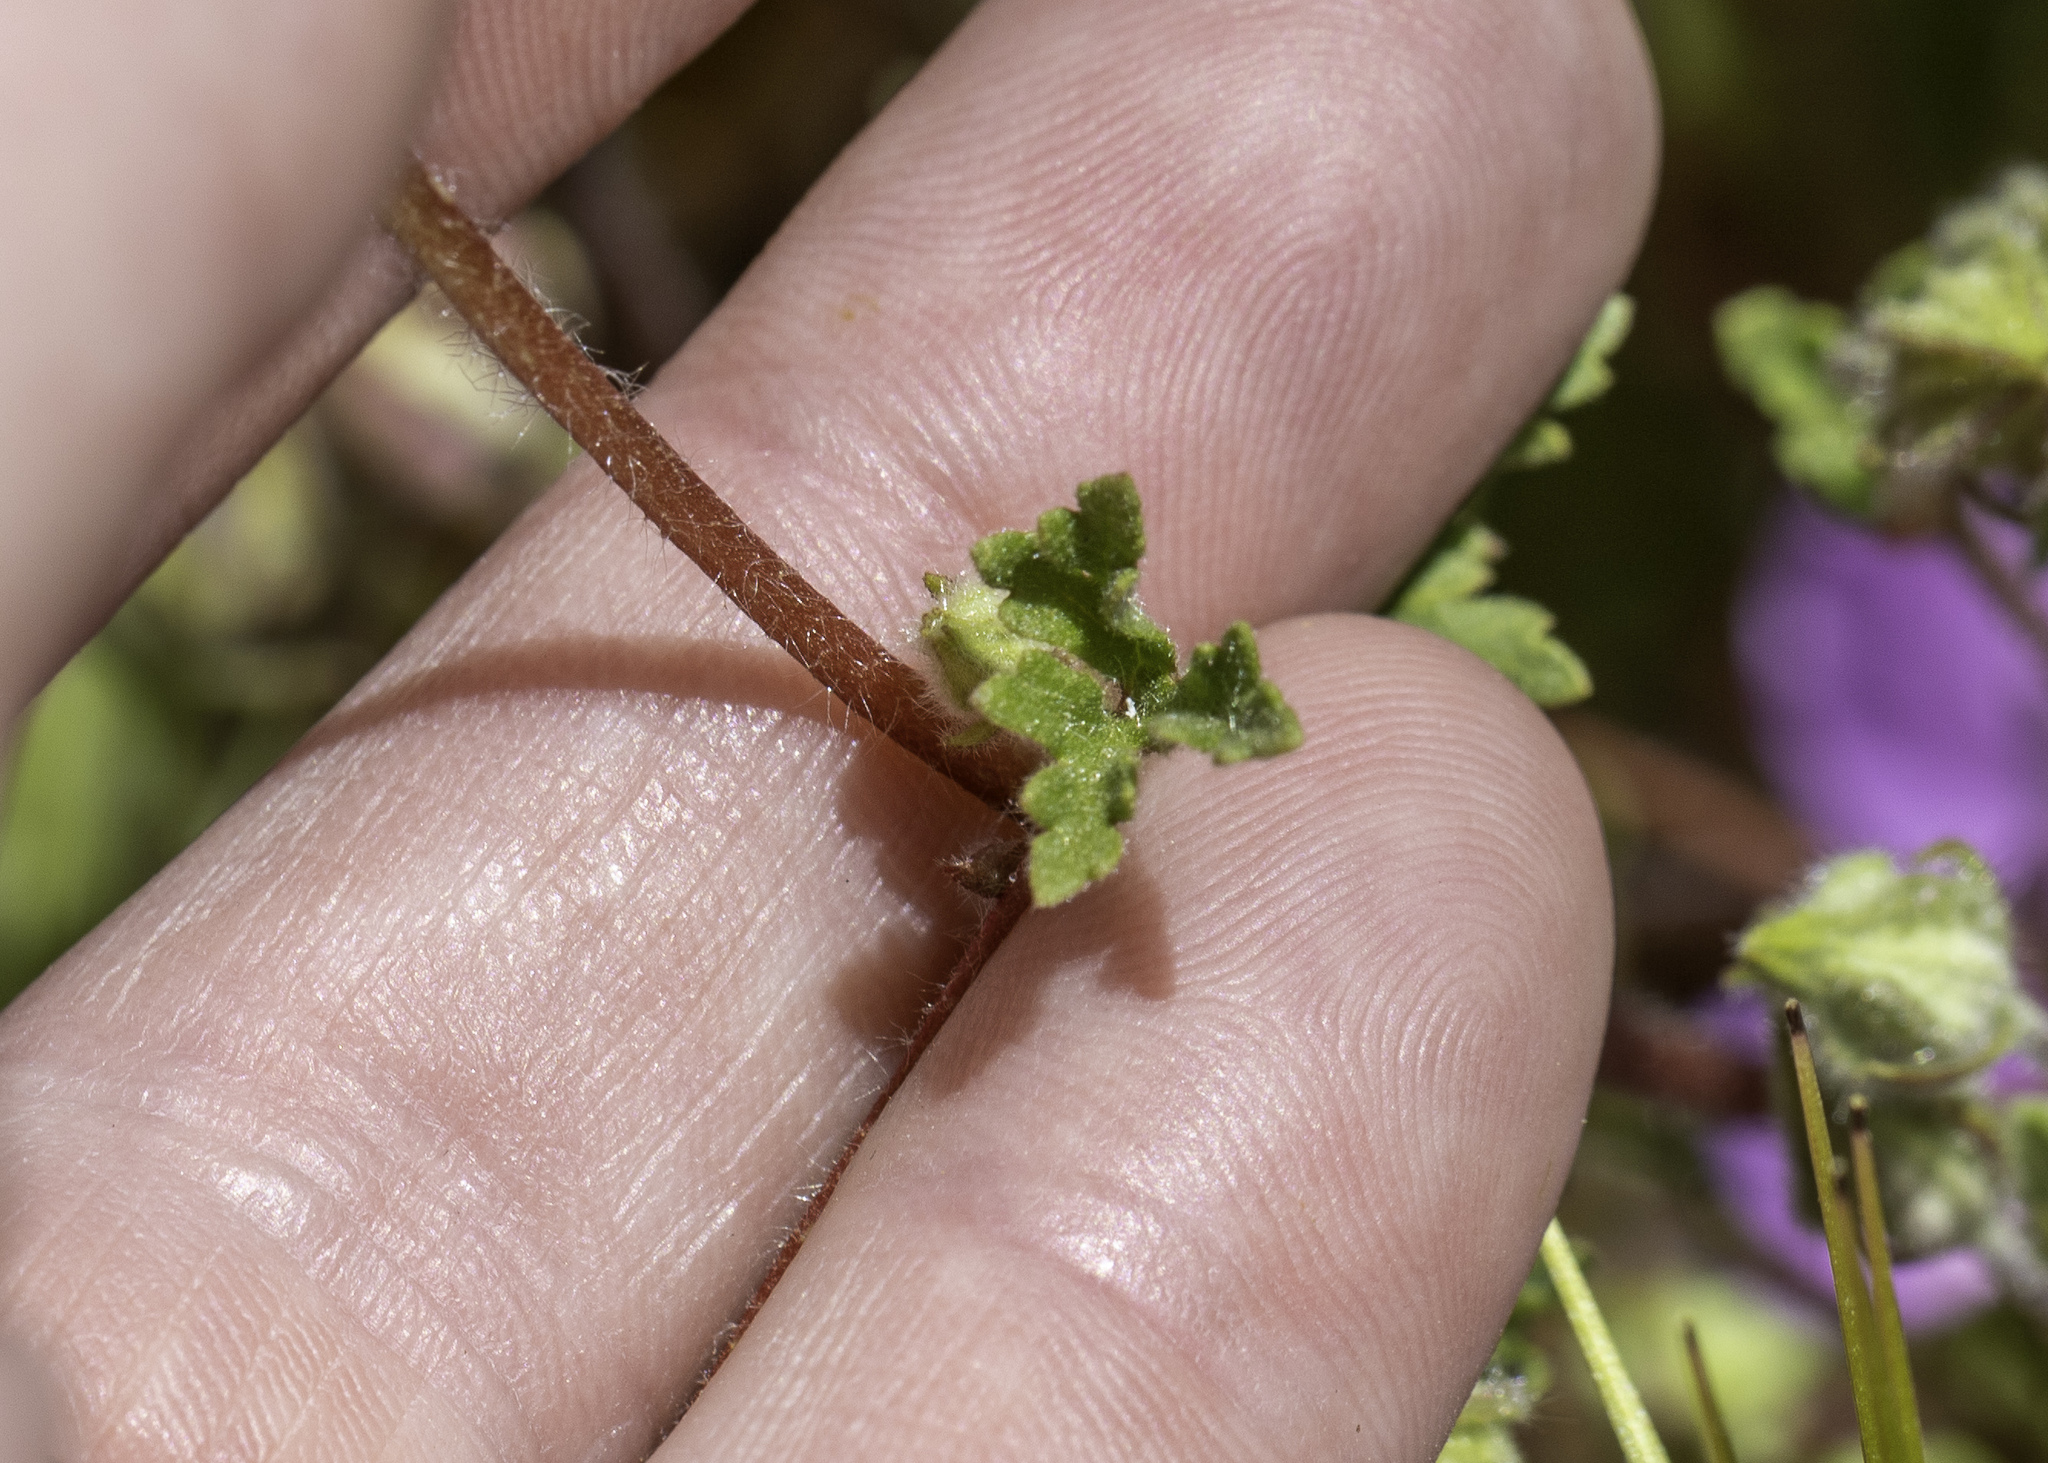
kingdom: Plantae
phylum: Tracheophyta
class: Magnoliopsida
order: Malvales
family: Malvaceae
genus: Eremalche
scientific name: Eremalche parryi
